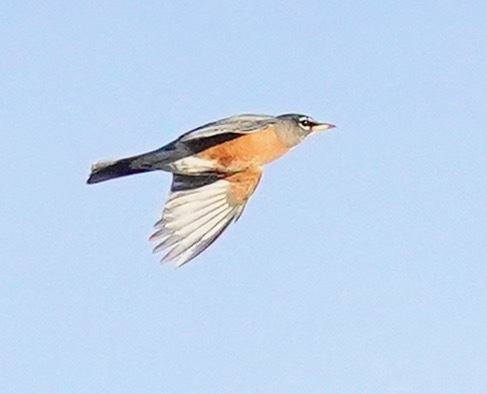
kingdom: Animalia
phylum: Chordata
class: Aves
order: Passeriformes
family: Turdidae
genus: Turdus
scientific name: Turdus migratorius
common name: American robin
